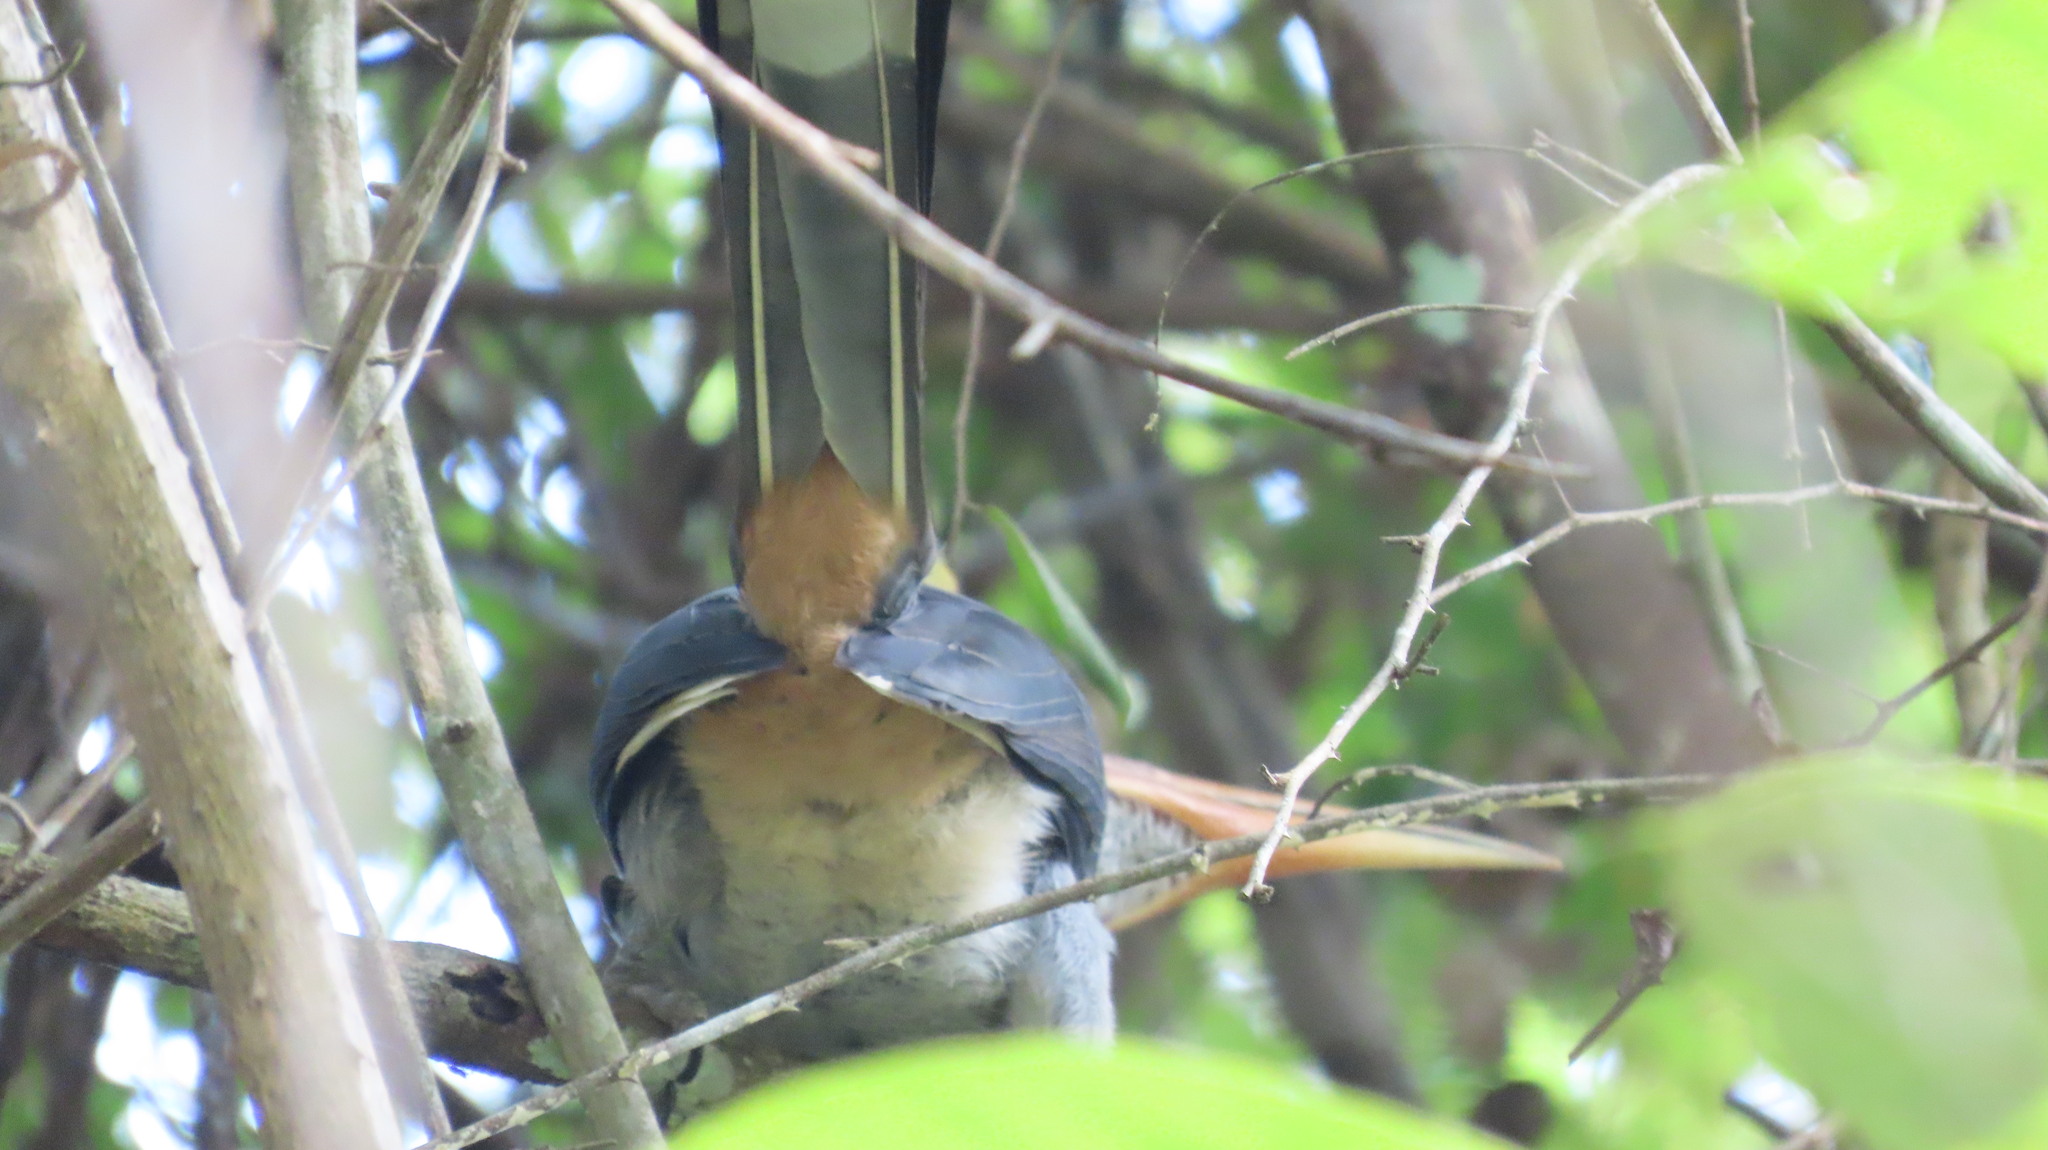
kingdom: Animalia
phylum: Chordata
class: Aves
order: Bucerotiformes
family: Bucerotidae
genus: Ocyceros
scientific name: Ocyceros griseus
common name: Malabar grey hornbill
